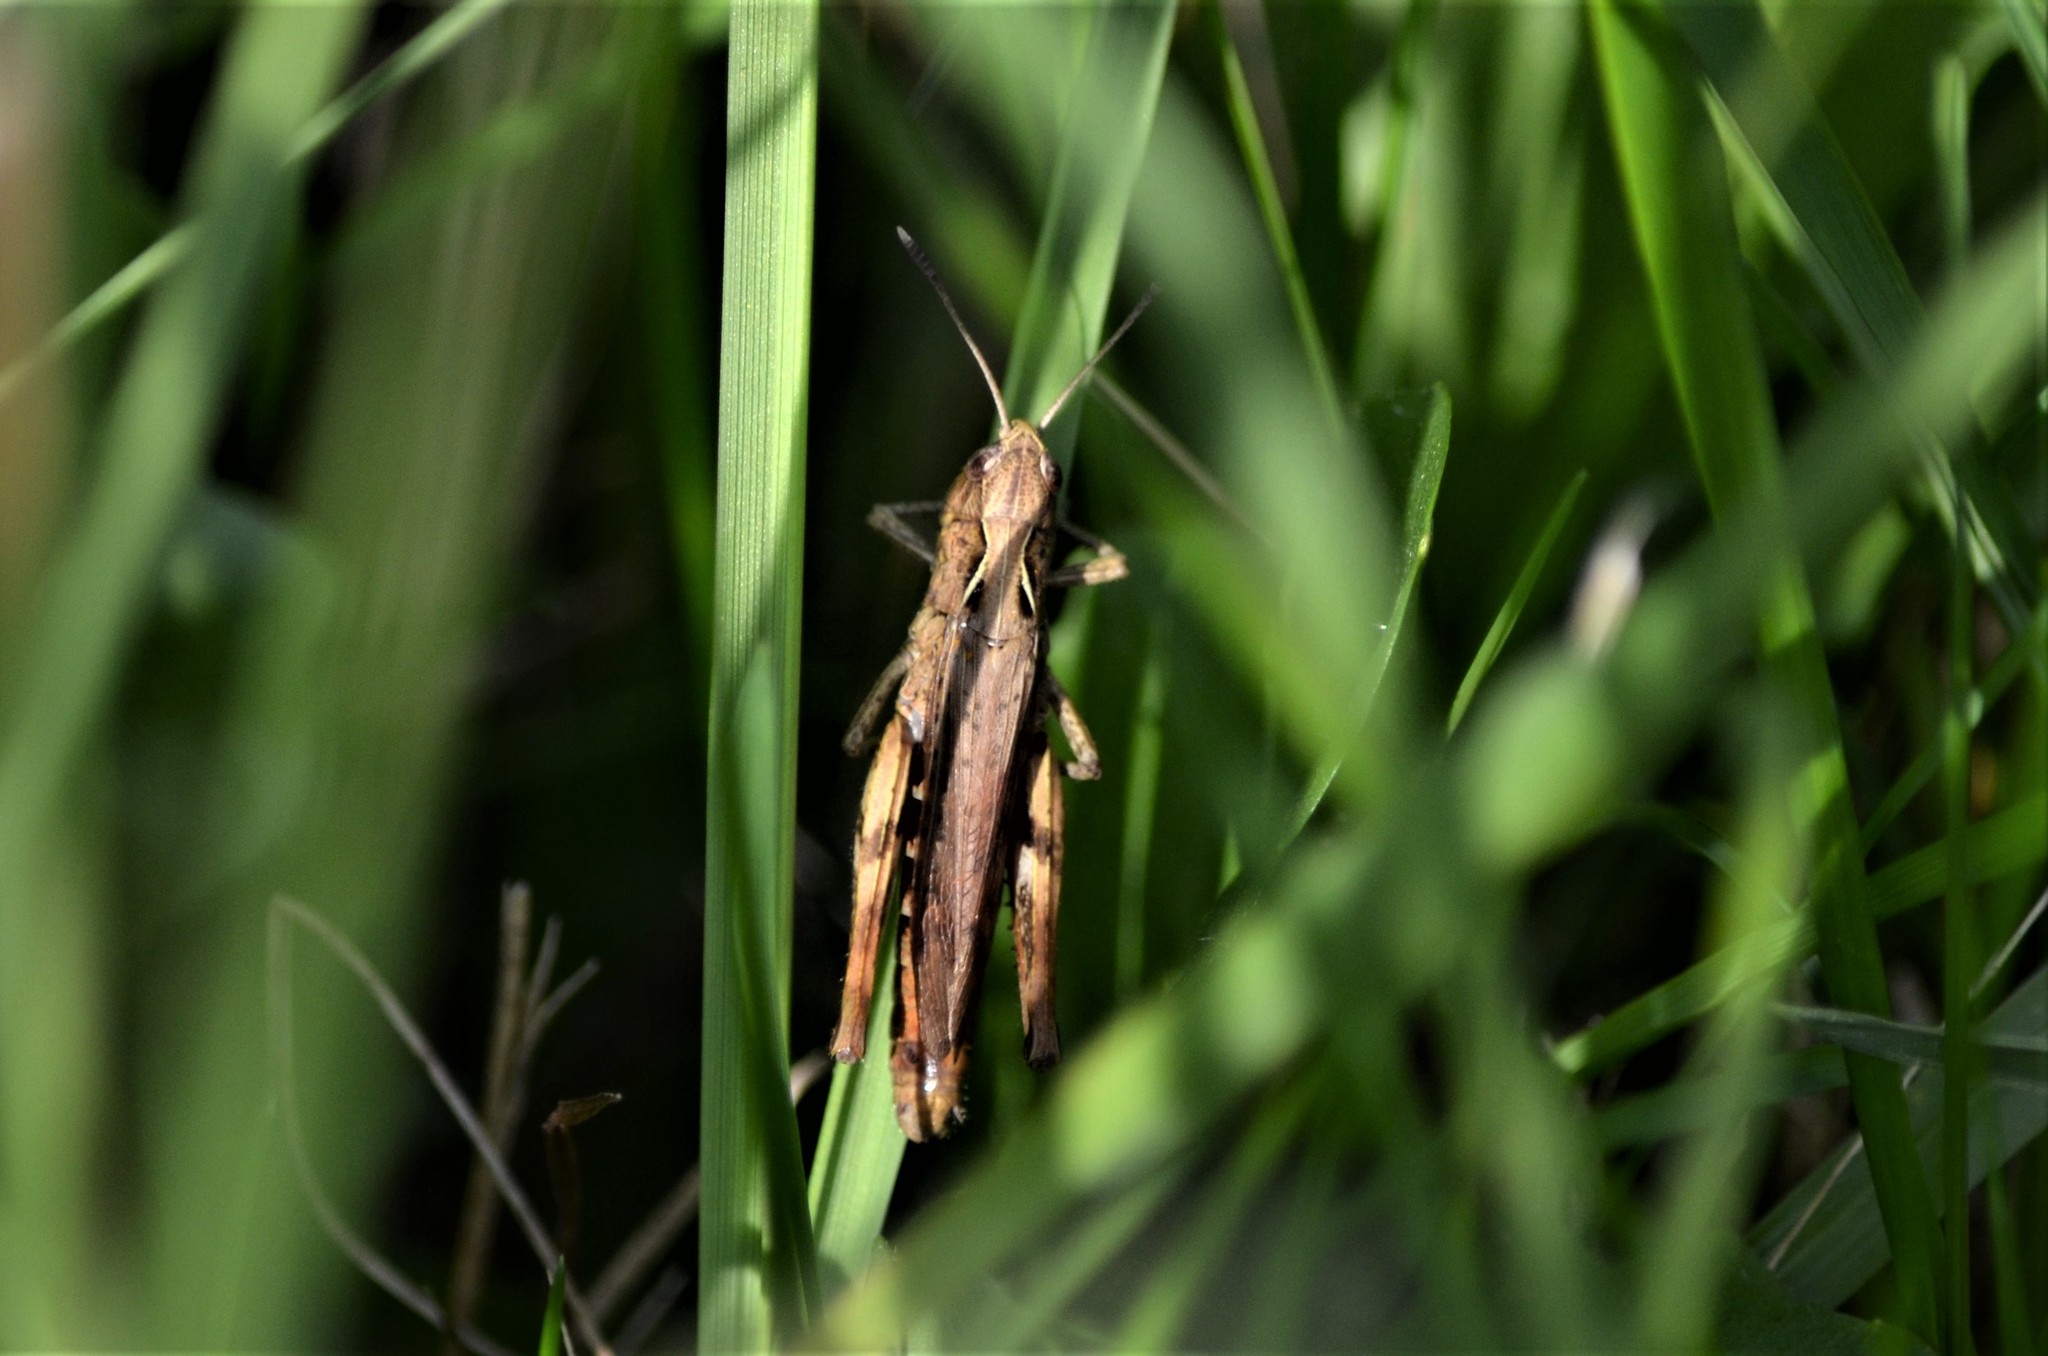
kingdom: Animalia
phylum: Arthropoda
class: Insecta
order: Orthoptera
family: Acrididae
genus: Gomphocerippus
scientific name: Gomphocerippus rufus
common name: Rufous grasshopper
